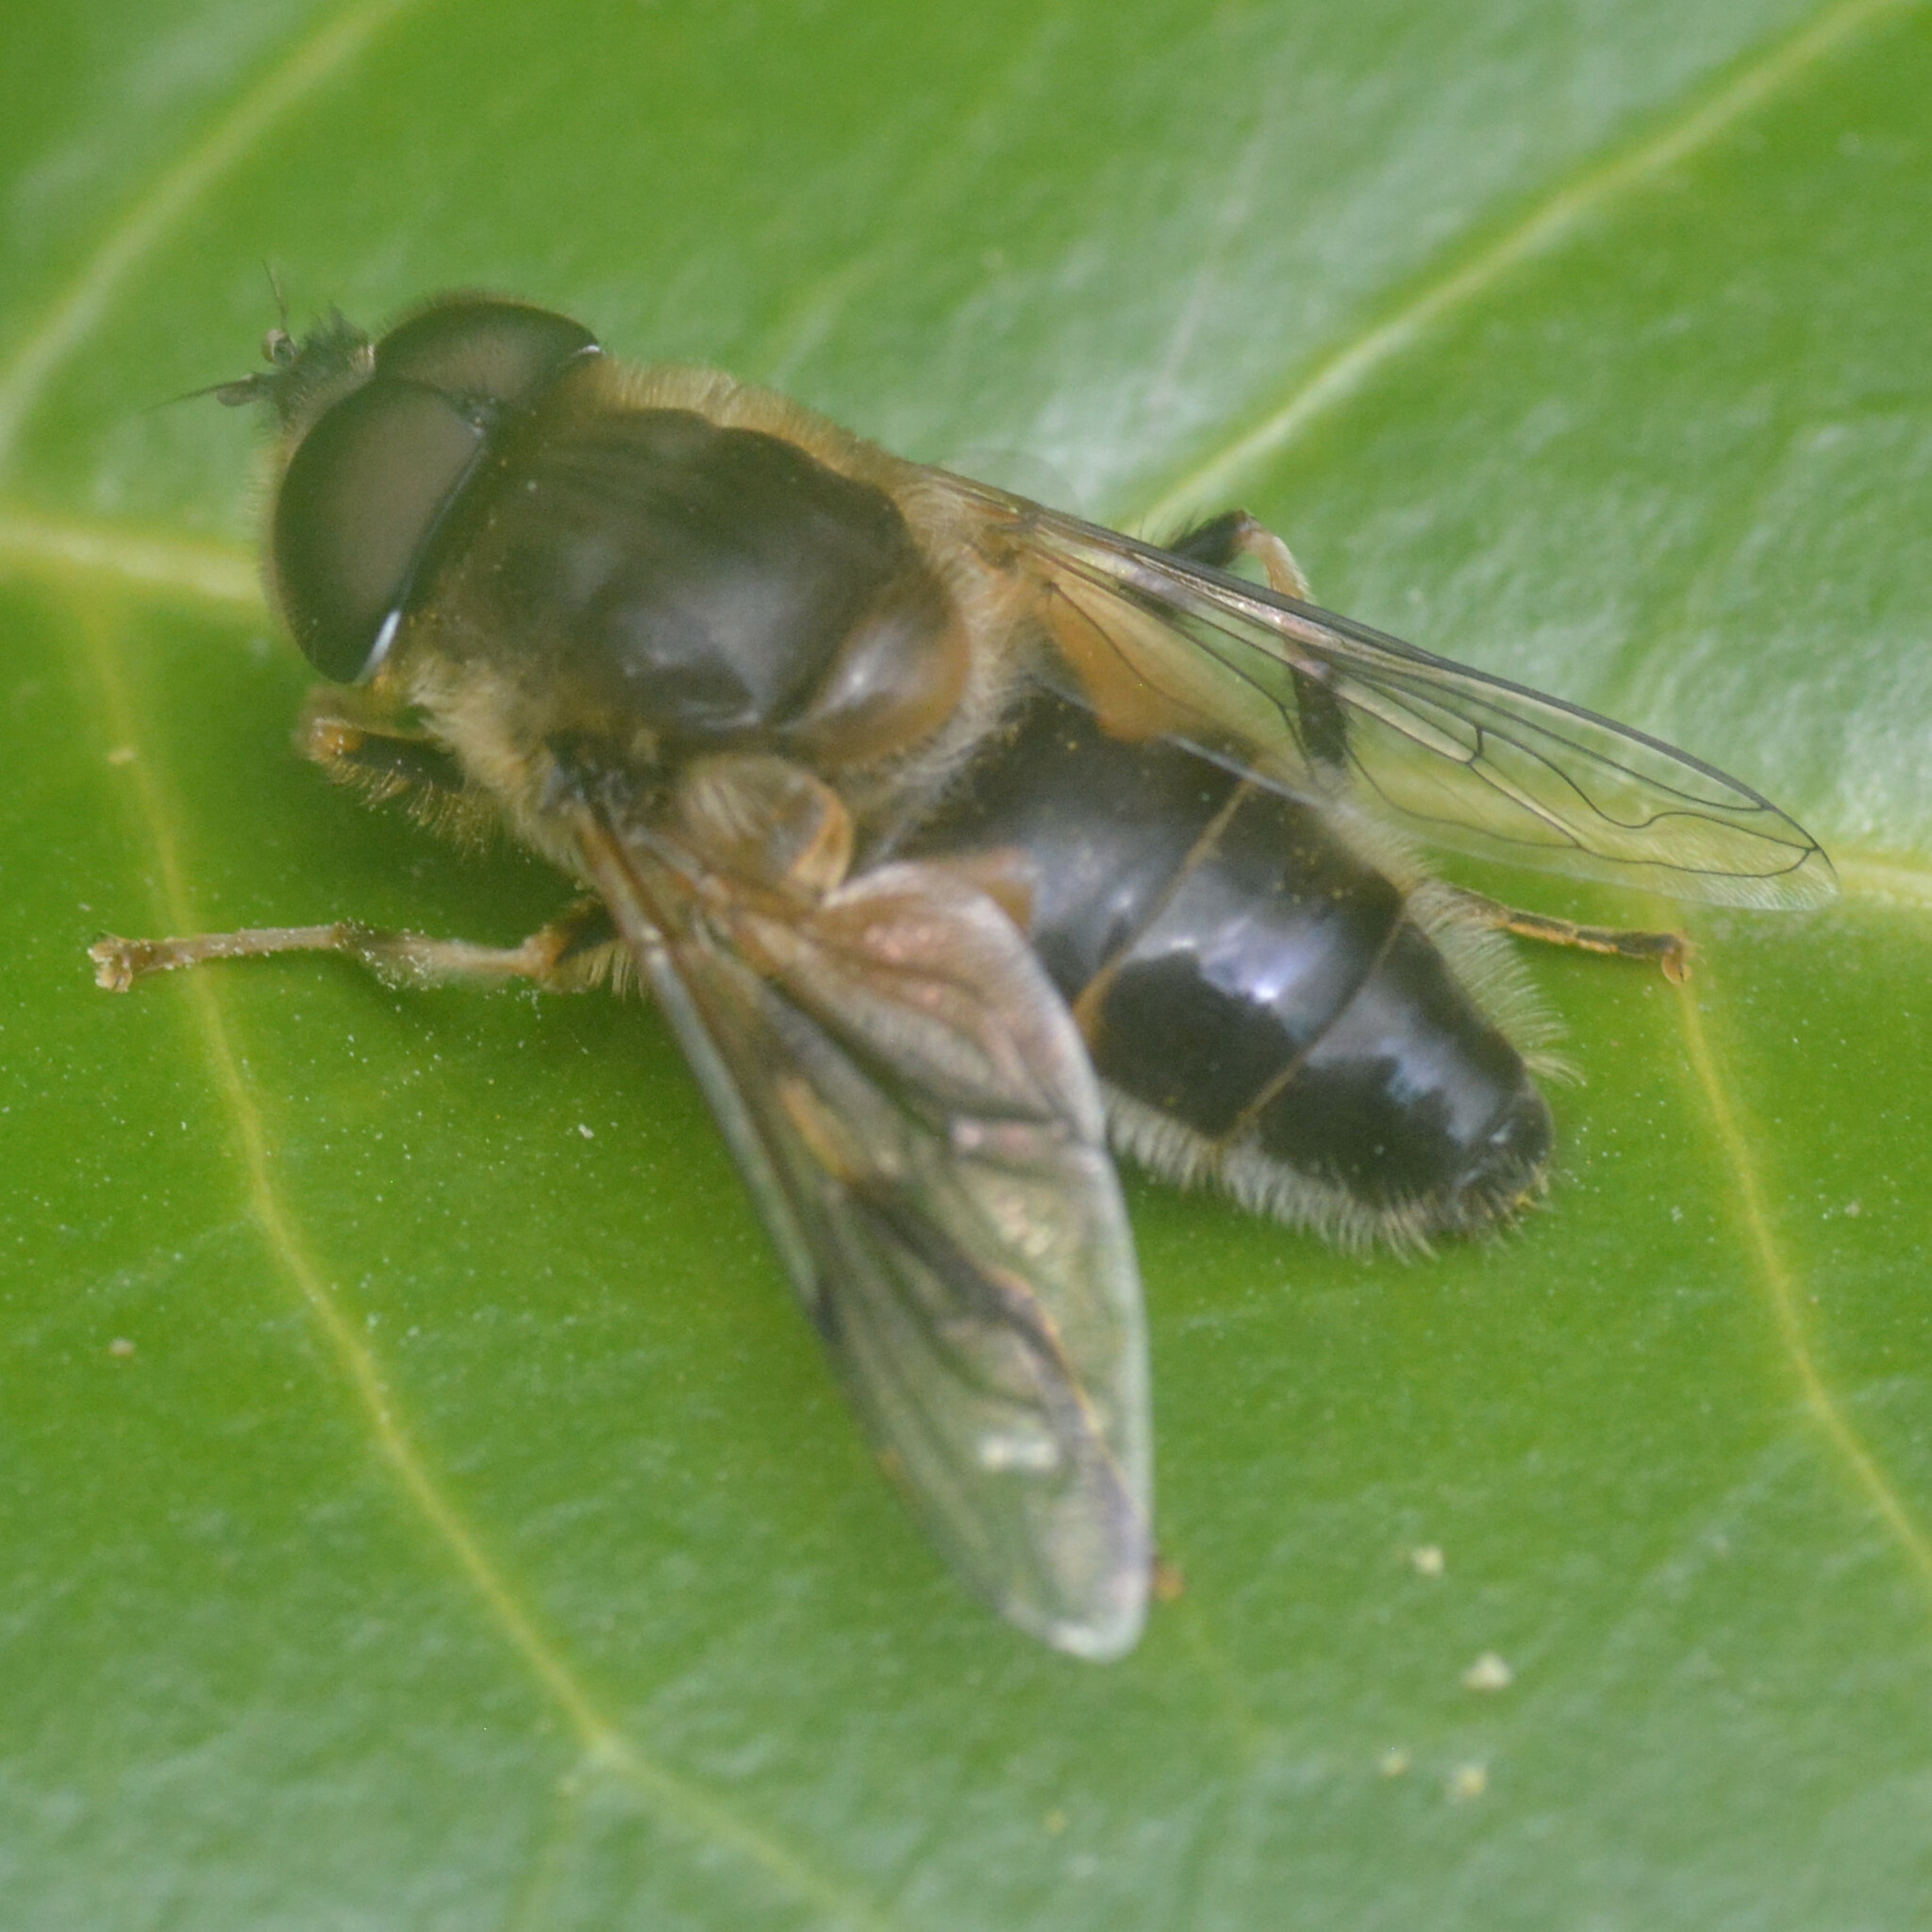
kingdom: Animalia
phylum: Arthropoda
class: Insecta
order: Diptera
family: Syrphidae
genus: Eristalis
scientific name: Eristalis pertinax
